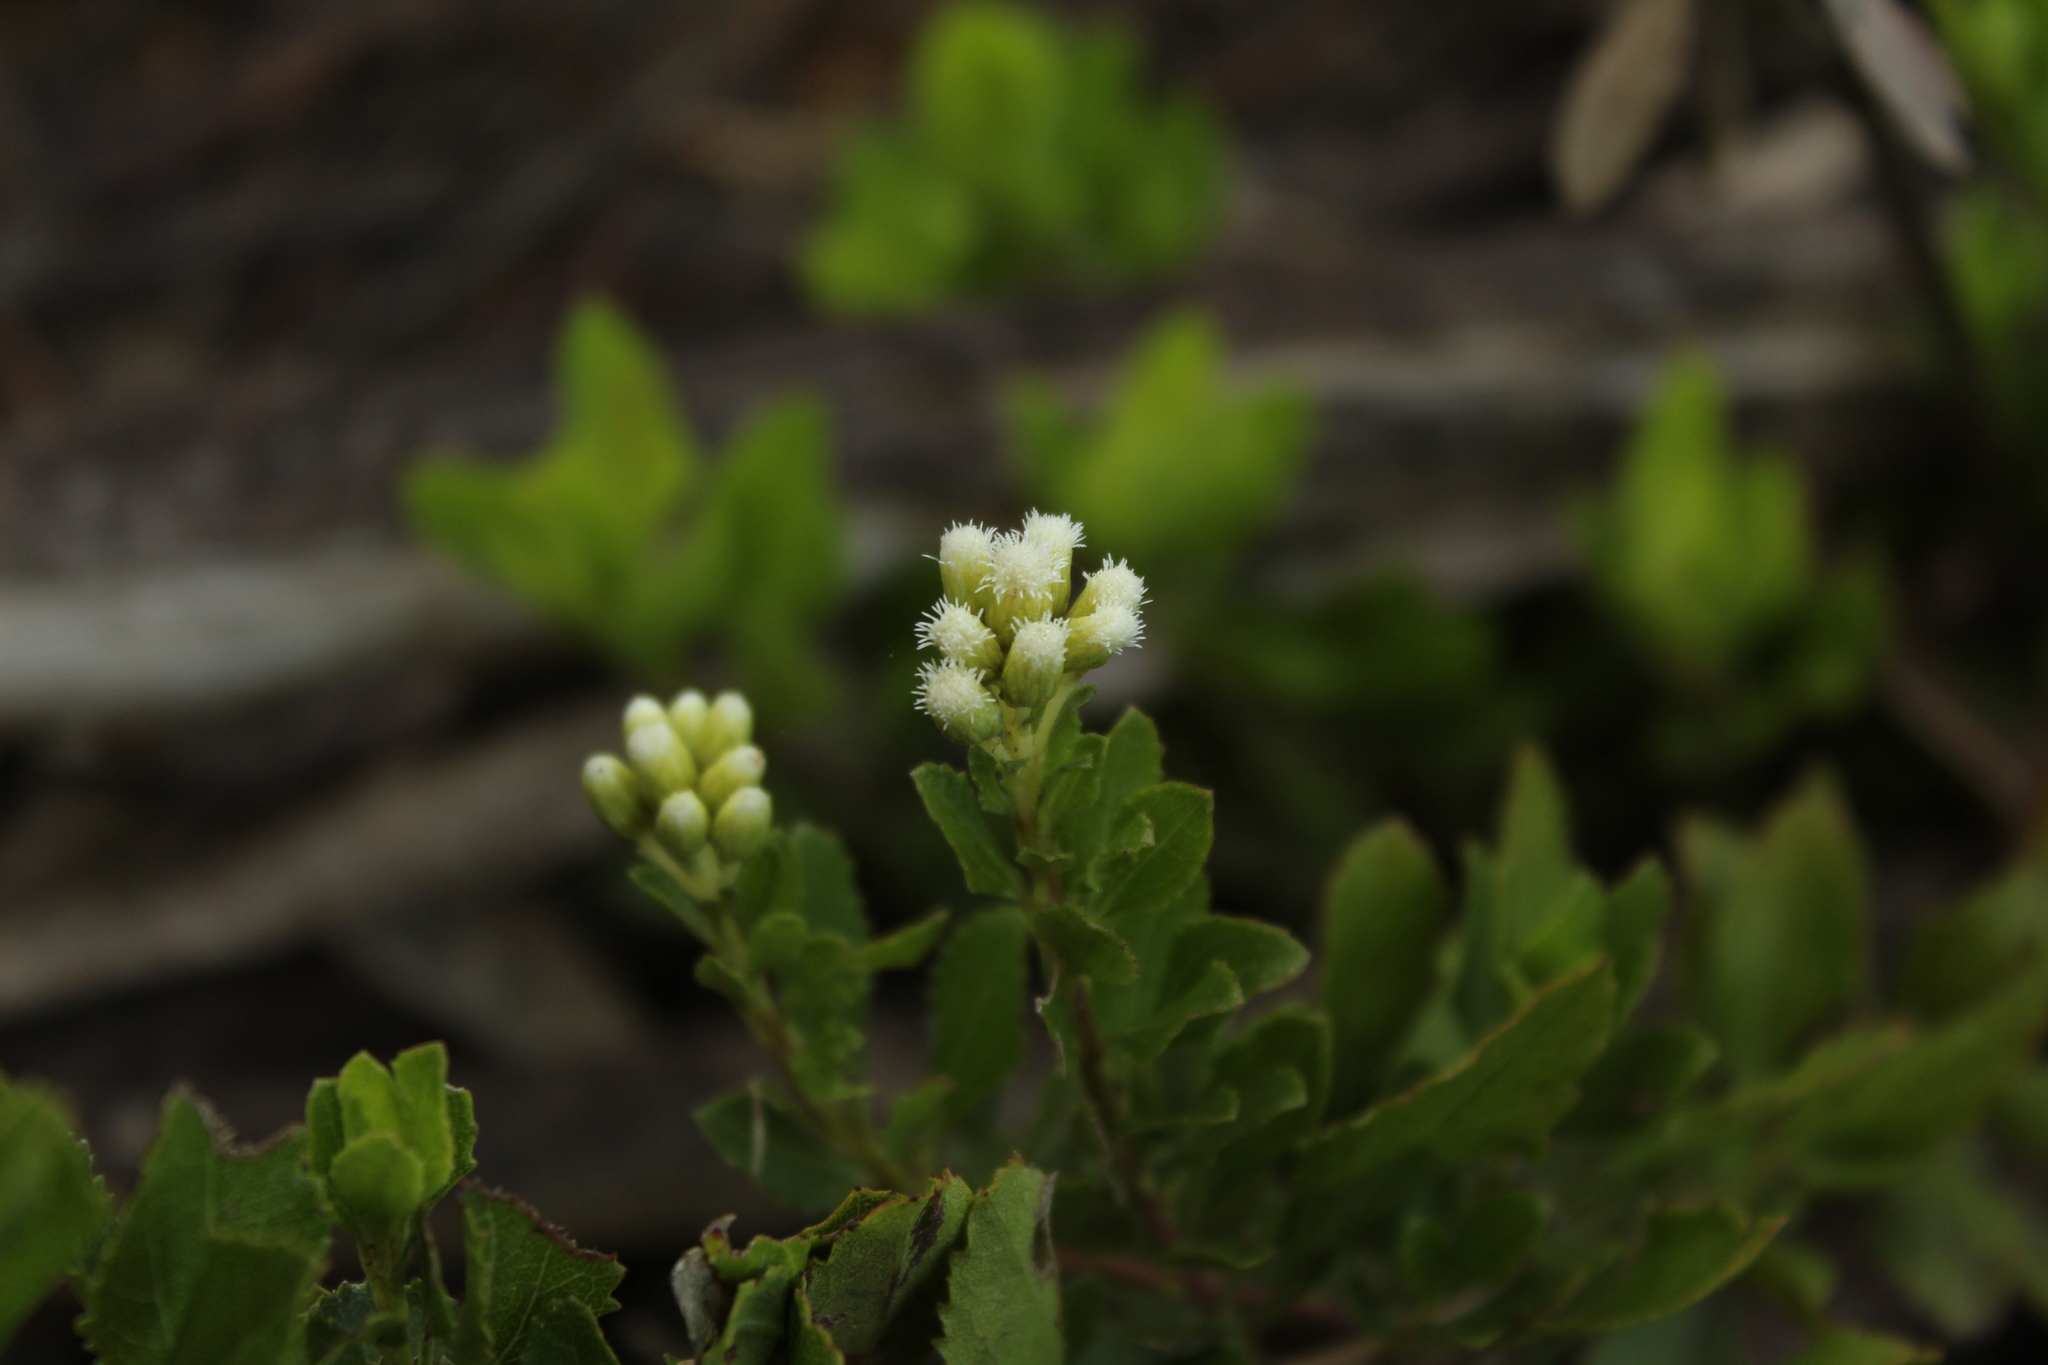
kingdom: Plantae
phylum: Tracheophyta
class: Magnoliopsida
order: Asterales
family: Asteraceae
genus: Baccharis
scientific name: Baccharis rupicola
